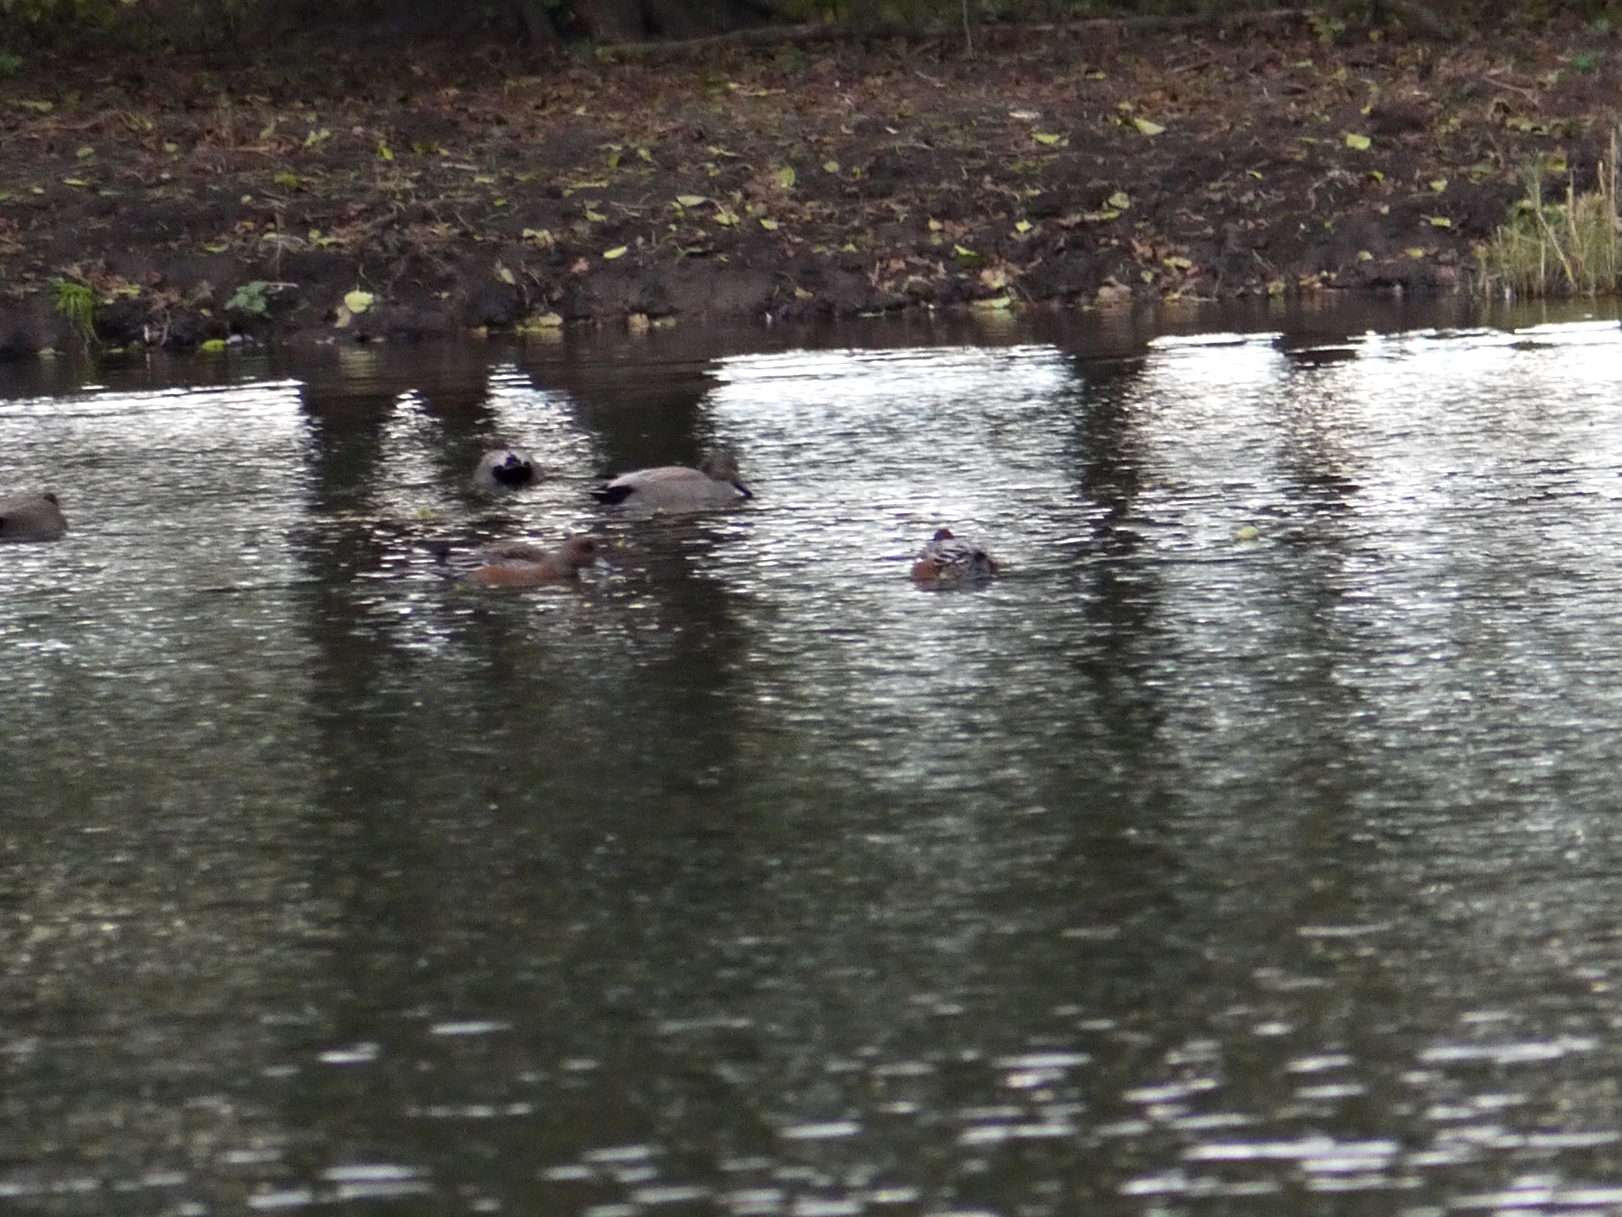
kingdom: Animalia
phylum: Chordata
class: Aves
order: Anseriformes
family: Anatidae
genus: Mareca
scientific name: Mareca penelope
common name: Eurasian wigeon
